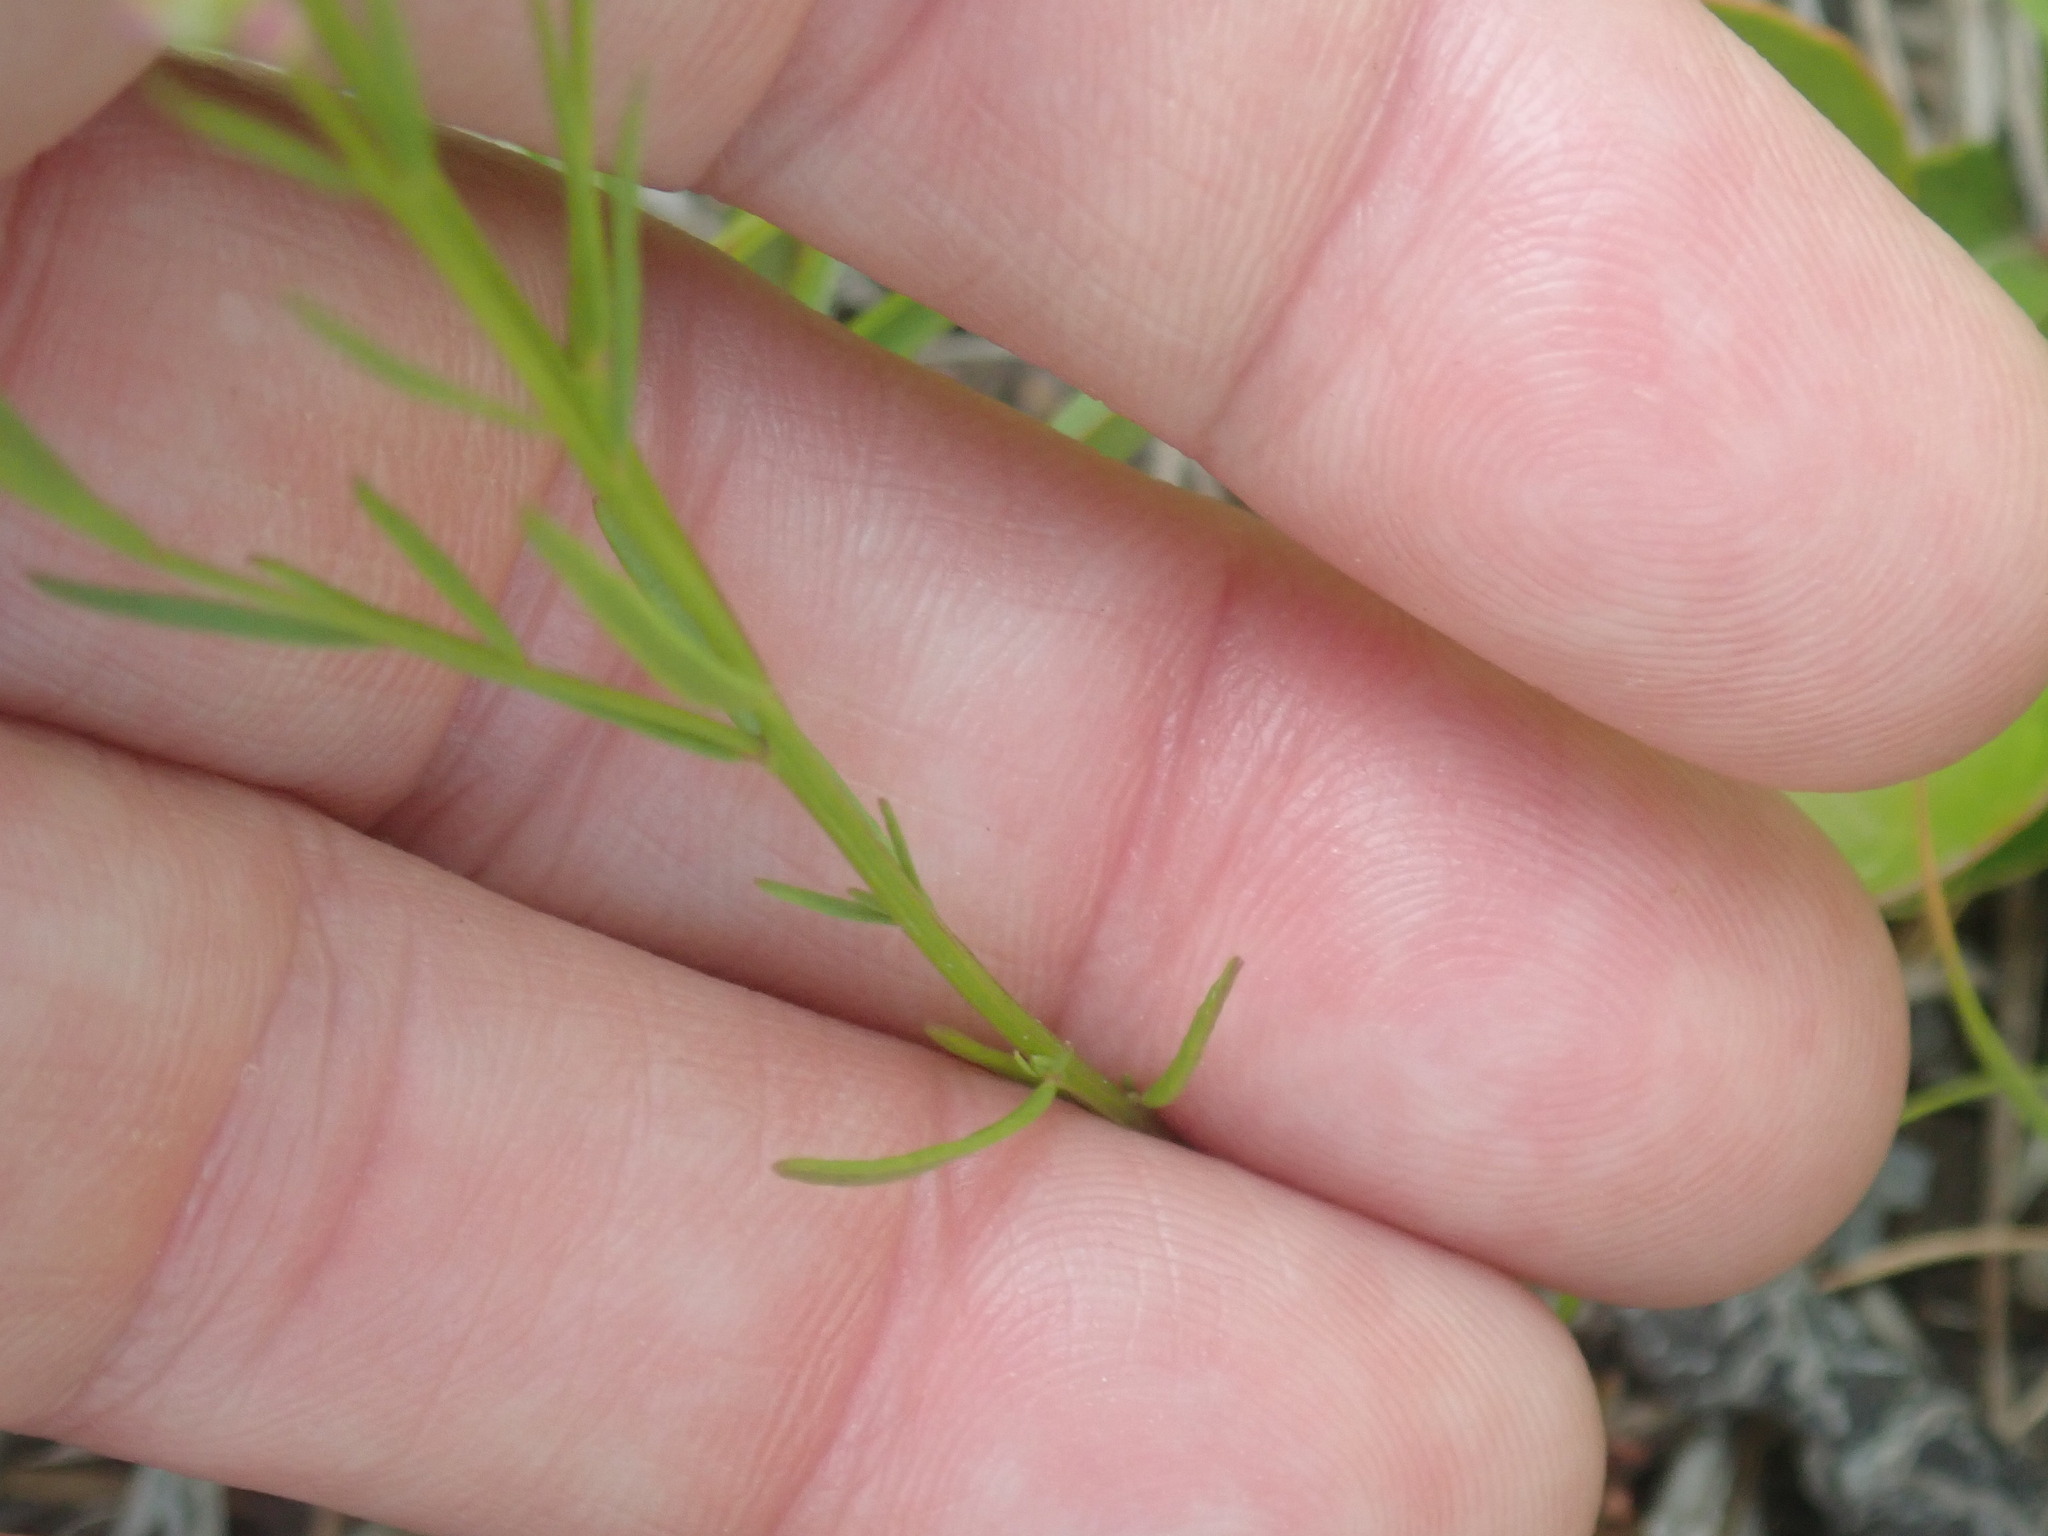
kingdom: Plantae
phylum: Tracheophyta
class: Magnoliopsida
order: Fabales
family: Polygalaceae
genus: Polygala
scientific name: Polygala nuttallii
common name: Nuttall's milkwort
